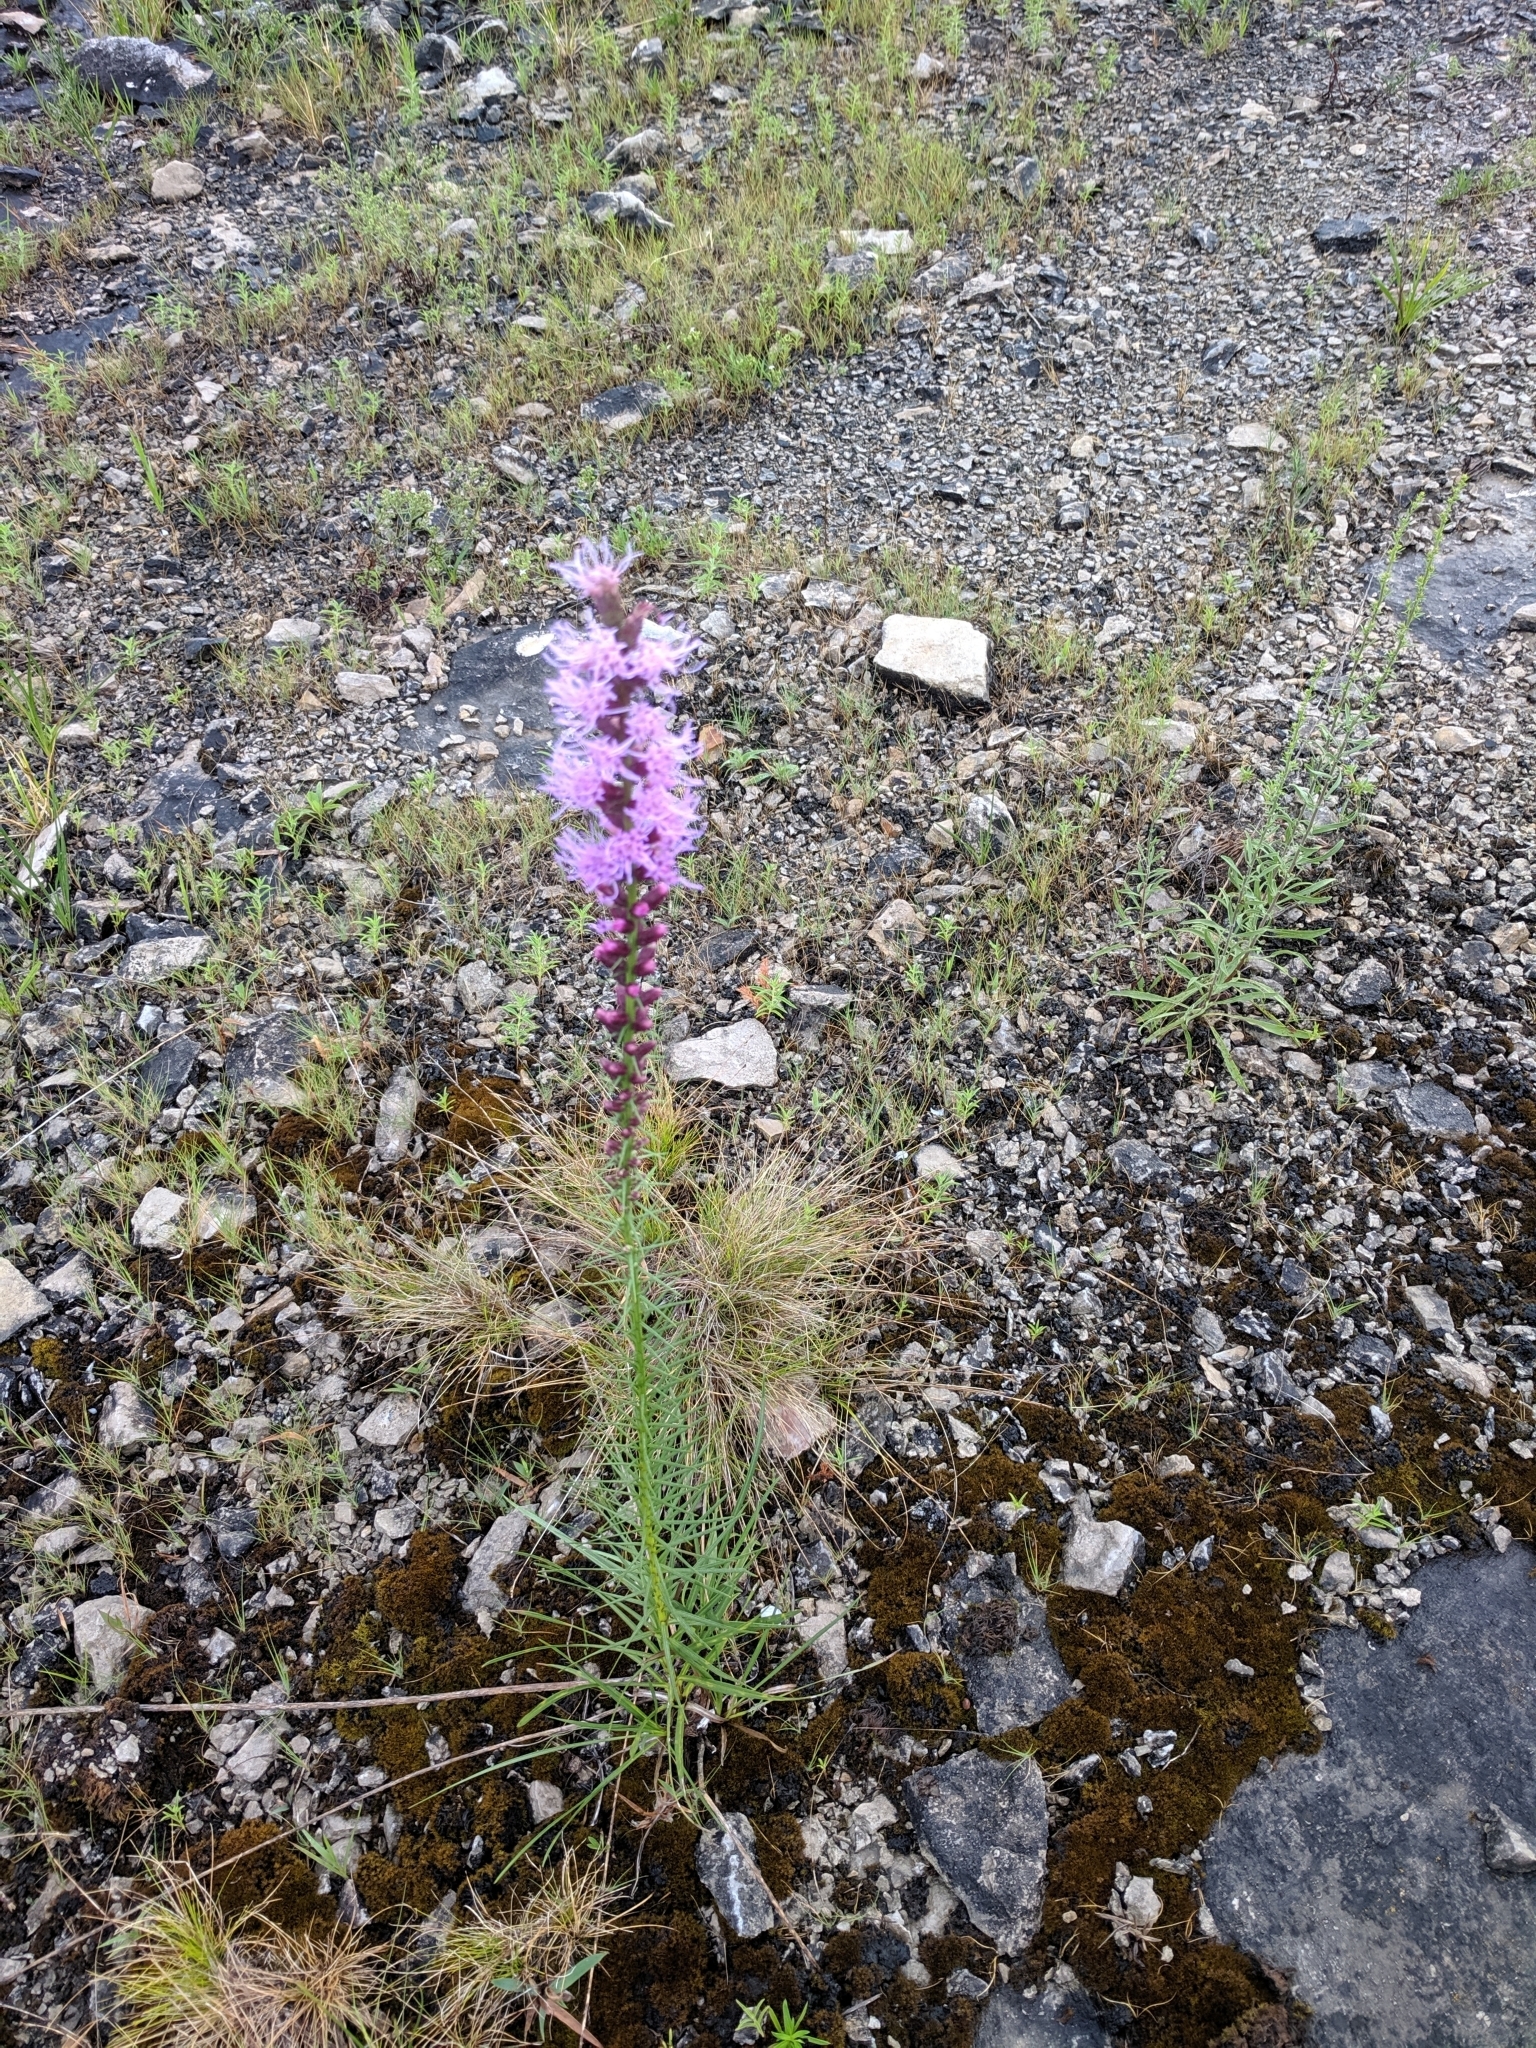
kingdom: Plantae
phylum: Tracheophyta
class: Magnoliopsida
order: Asterales
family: Asteraceae
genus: Liatris
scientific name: Liatris spicata
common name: Florist gayfeather
